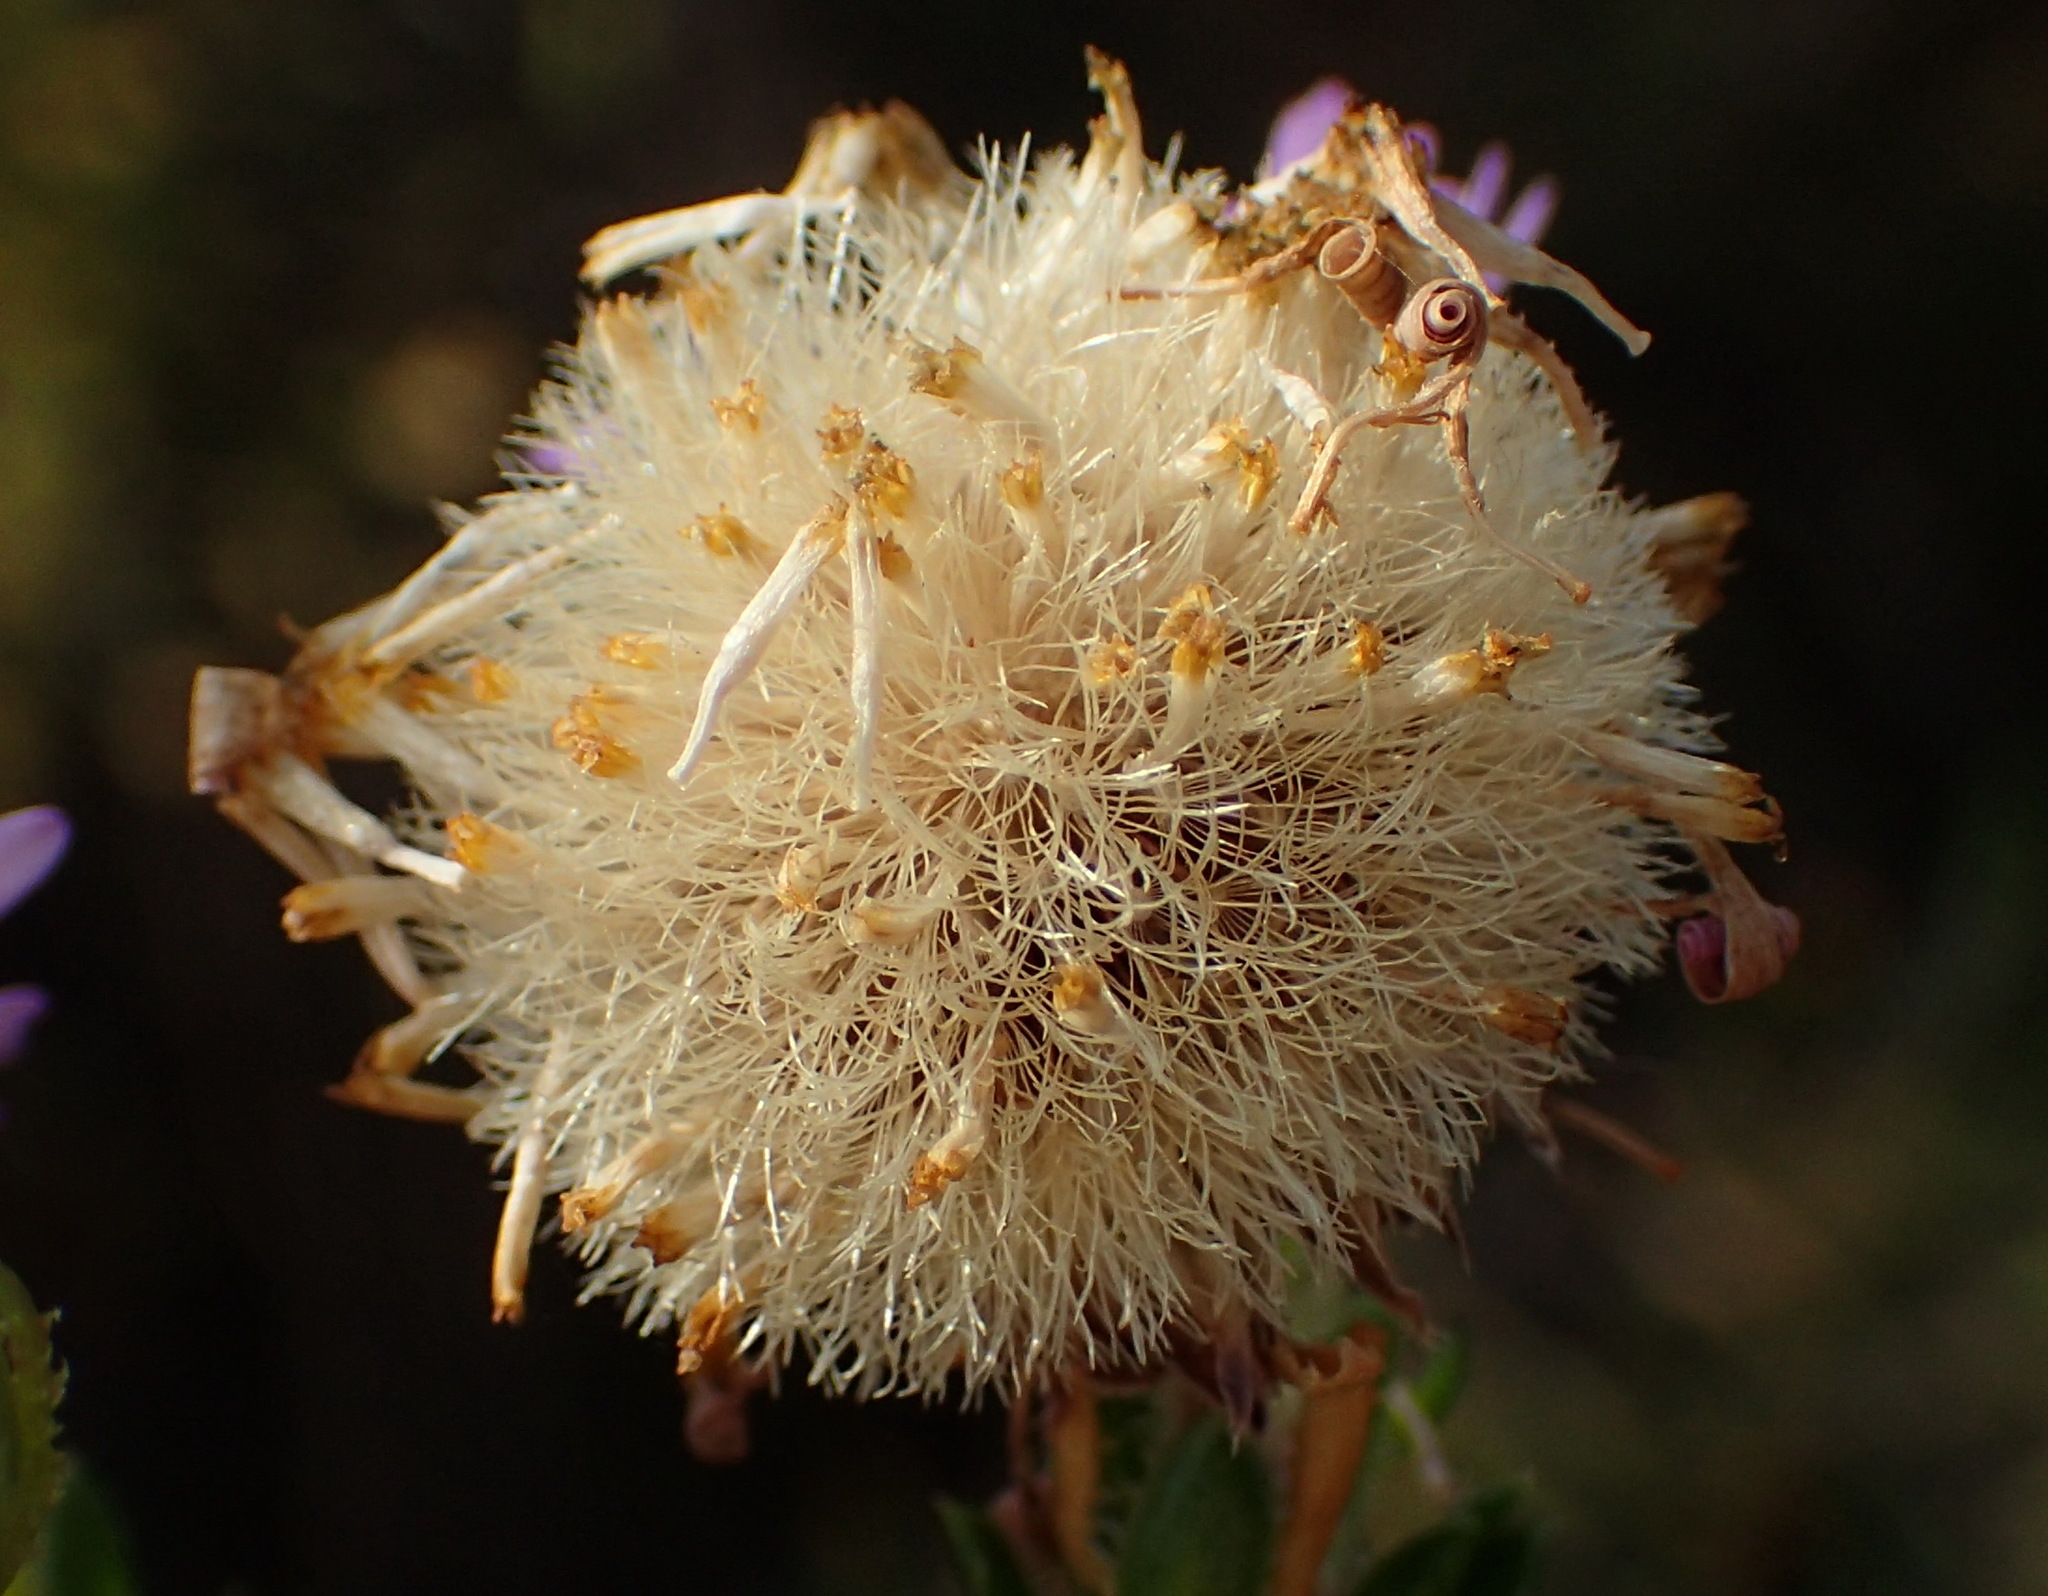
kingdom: Plantae
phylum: Tracheophyta
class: Magnoliopsida
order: Asterales
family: Asteraceae
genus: Felicia
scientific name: Felicia echinata
